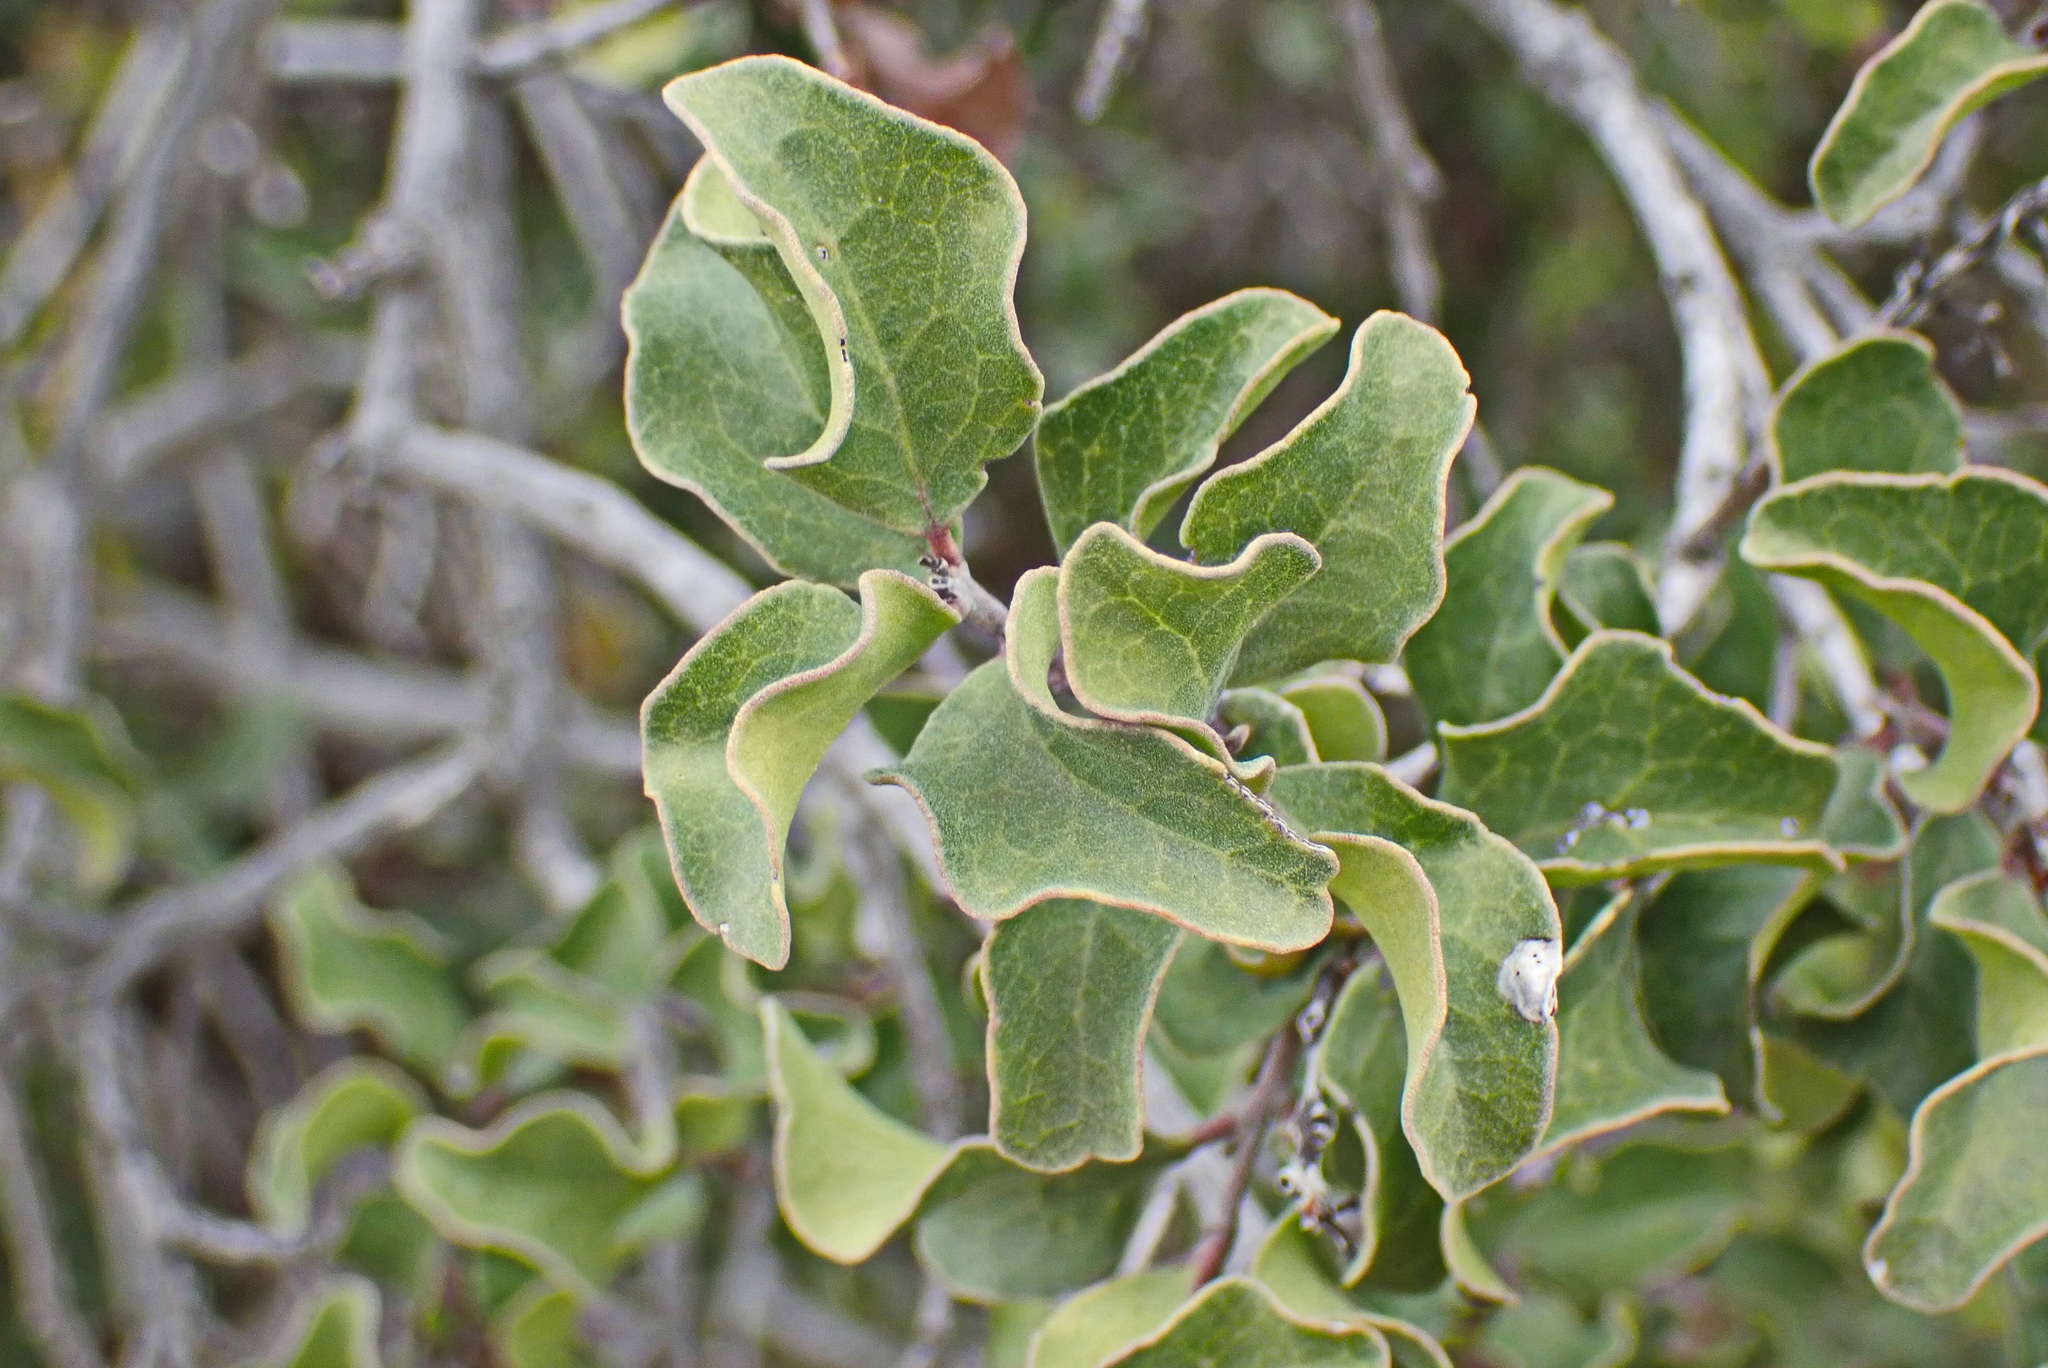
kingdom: Plantae
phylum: Tracheophyta
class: Magnoliopsida
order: Ericales
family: Ebenaceae
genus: Euclea
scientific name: Euclea undulata
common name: Small-leaved guarri
